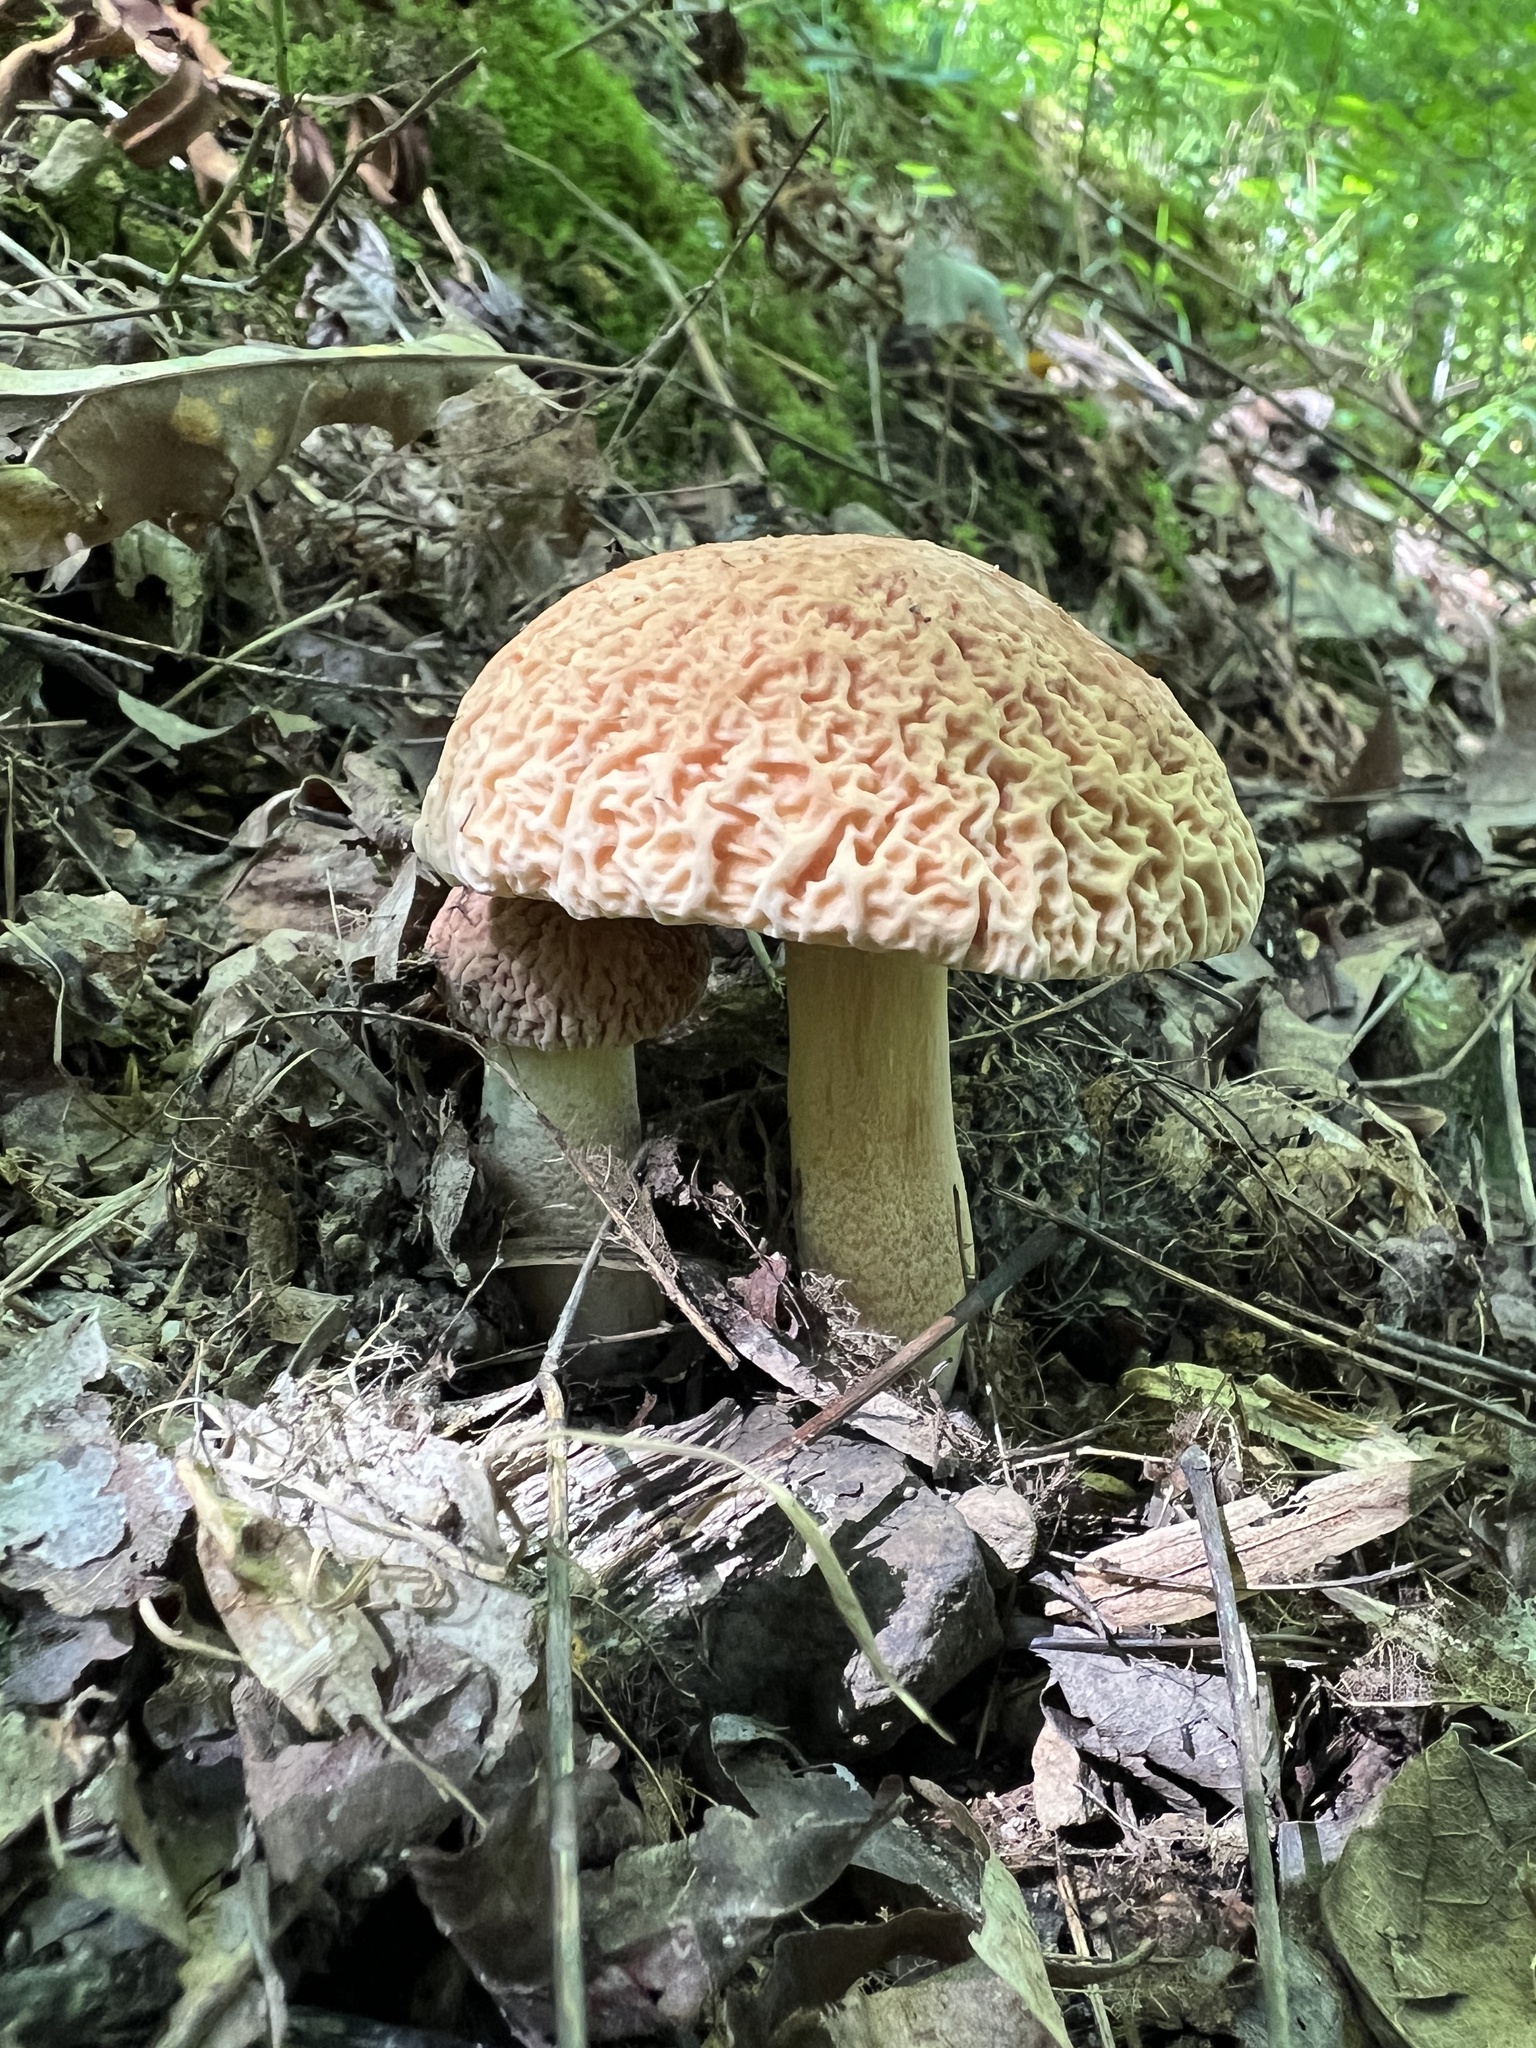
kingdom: Fungi
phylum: Basidiomycota
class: Agaricomycetes
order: Boletales
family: Boletaceae
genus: Hemileccinum
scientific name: Hemileccinum hortonii
